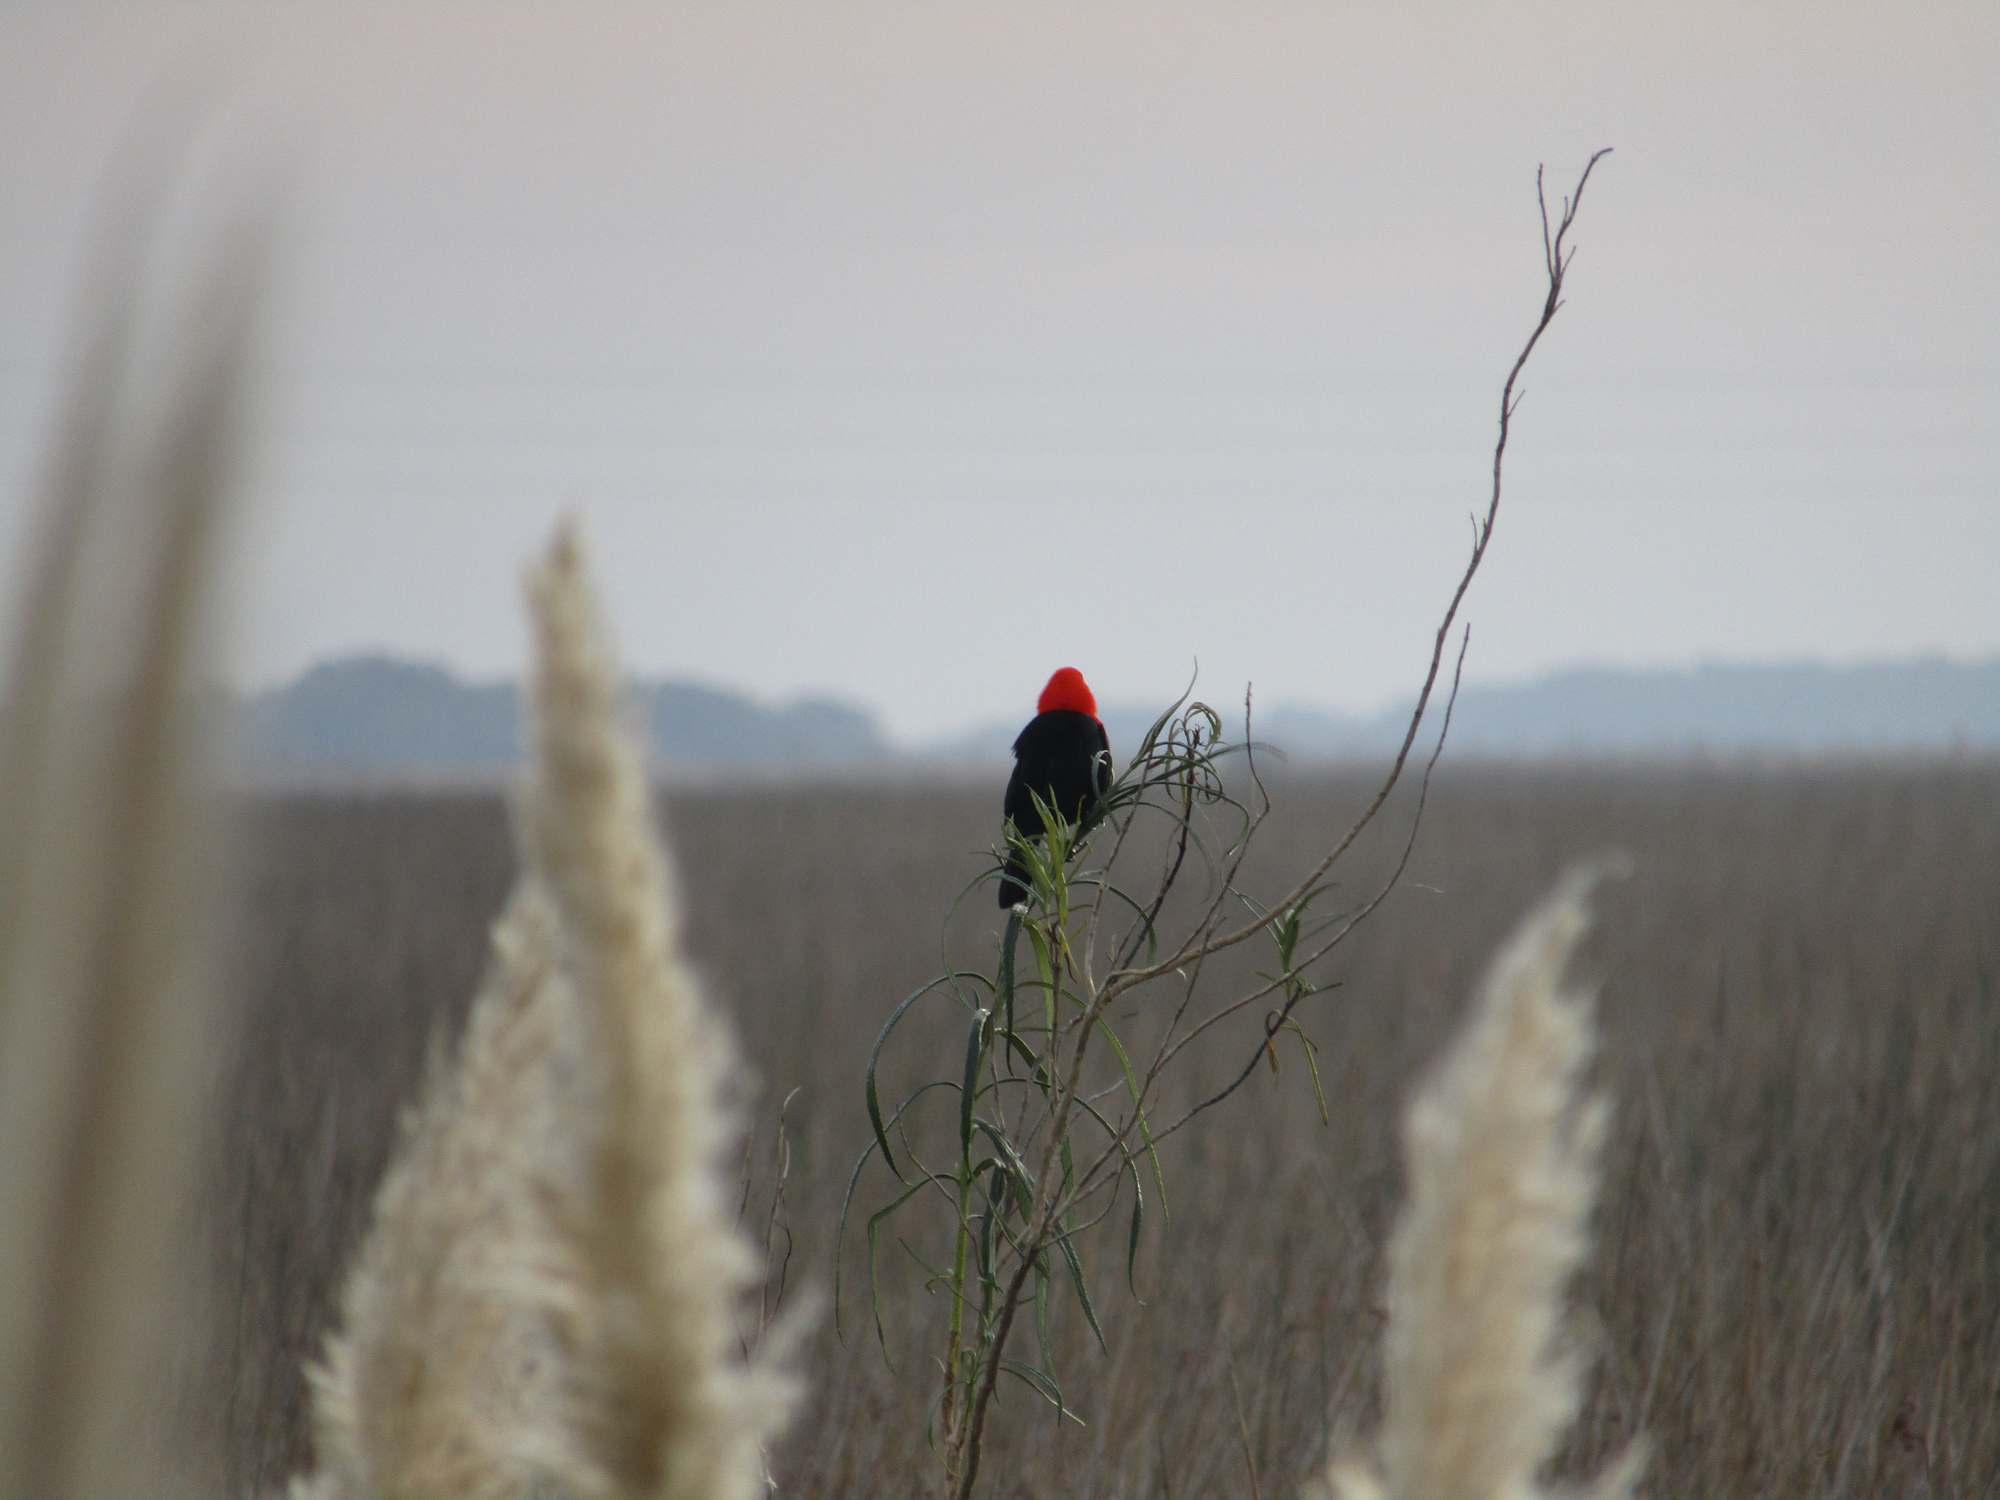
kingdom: Animalia
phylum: Chordata
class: Aves
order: Passeriformes
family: Icteridae
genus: Amblyramphus
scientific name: Amblyramphus holosericeus
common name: Scarlet-headed blackbird
